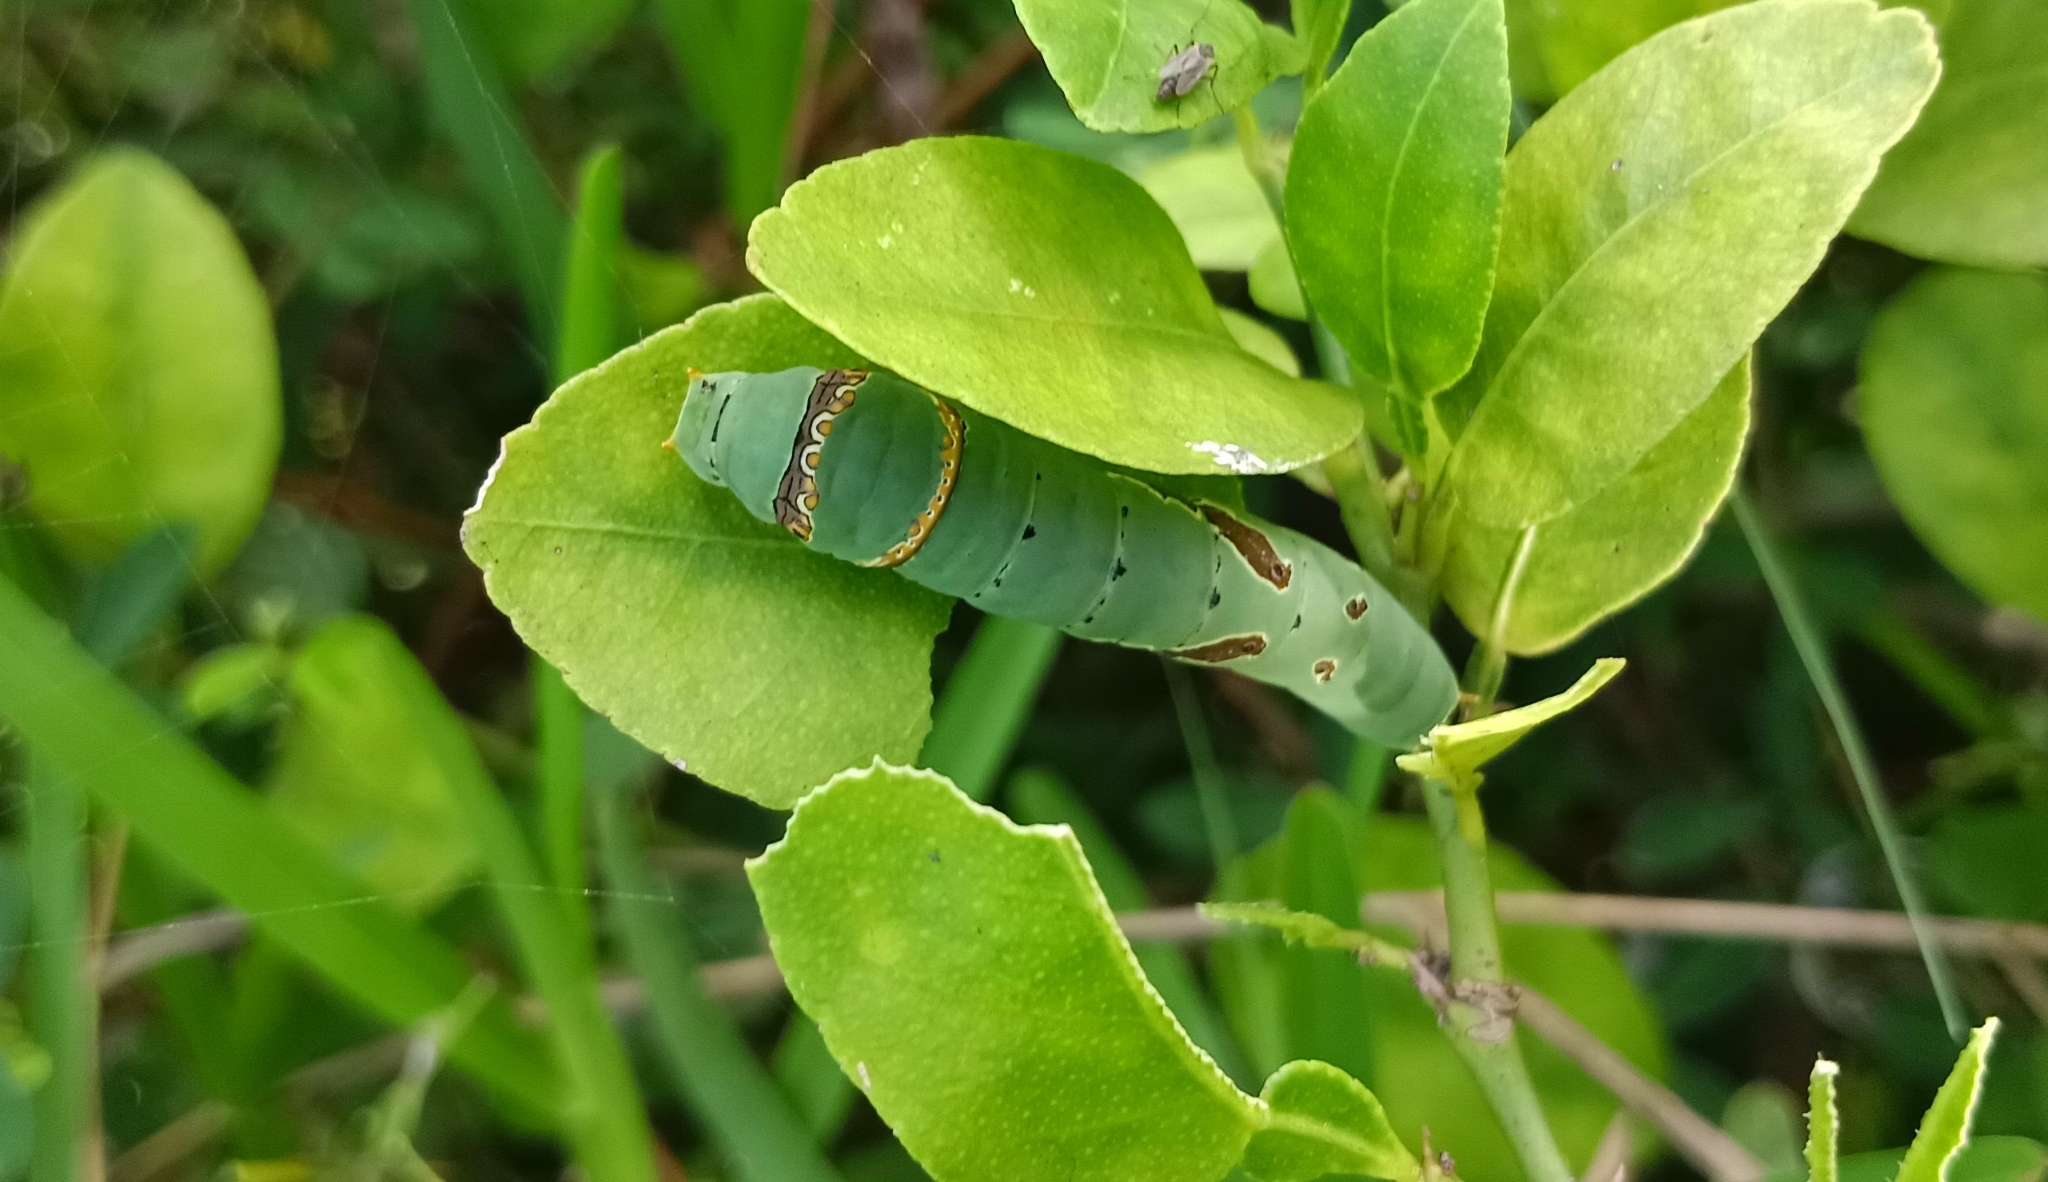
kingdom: Animalia
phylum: Arthropoda
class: Insecta
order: Lepidoptera
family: Papilionidae
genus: Papilio
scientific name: Papilio demoleus
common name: Lime butterfly
